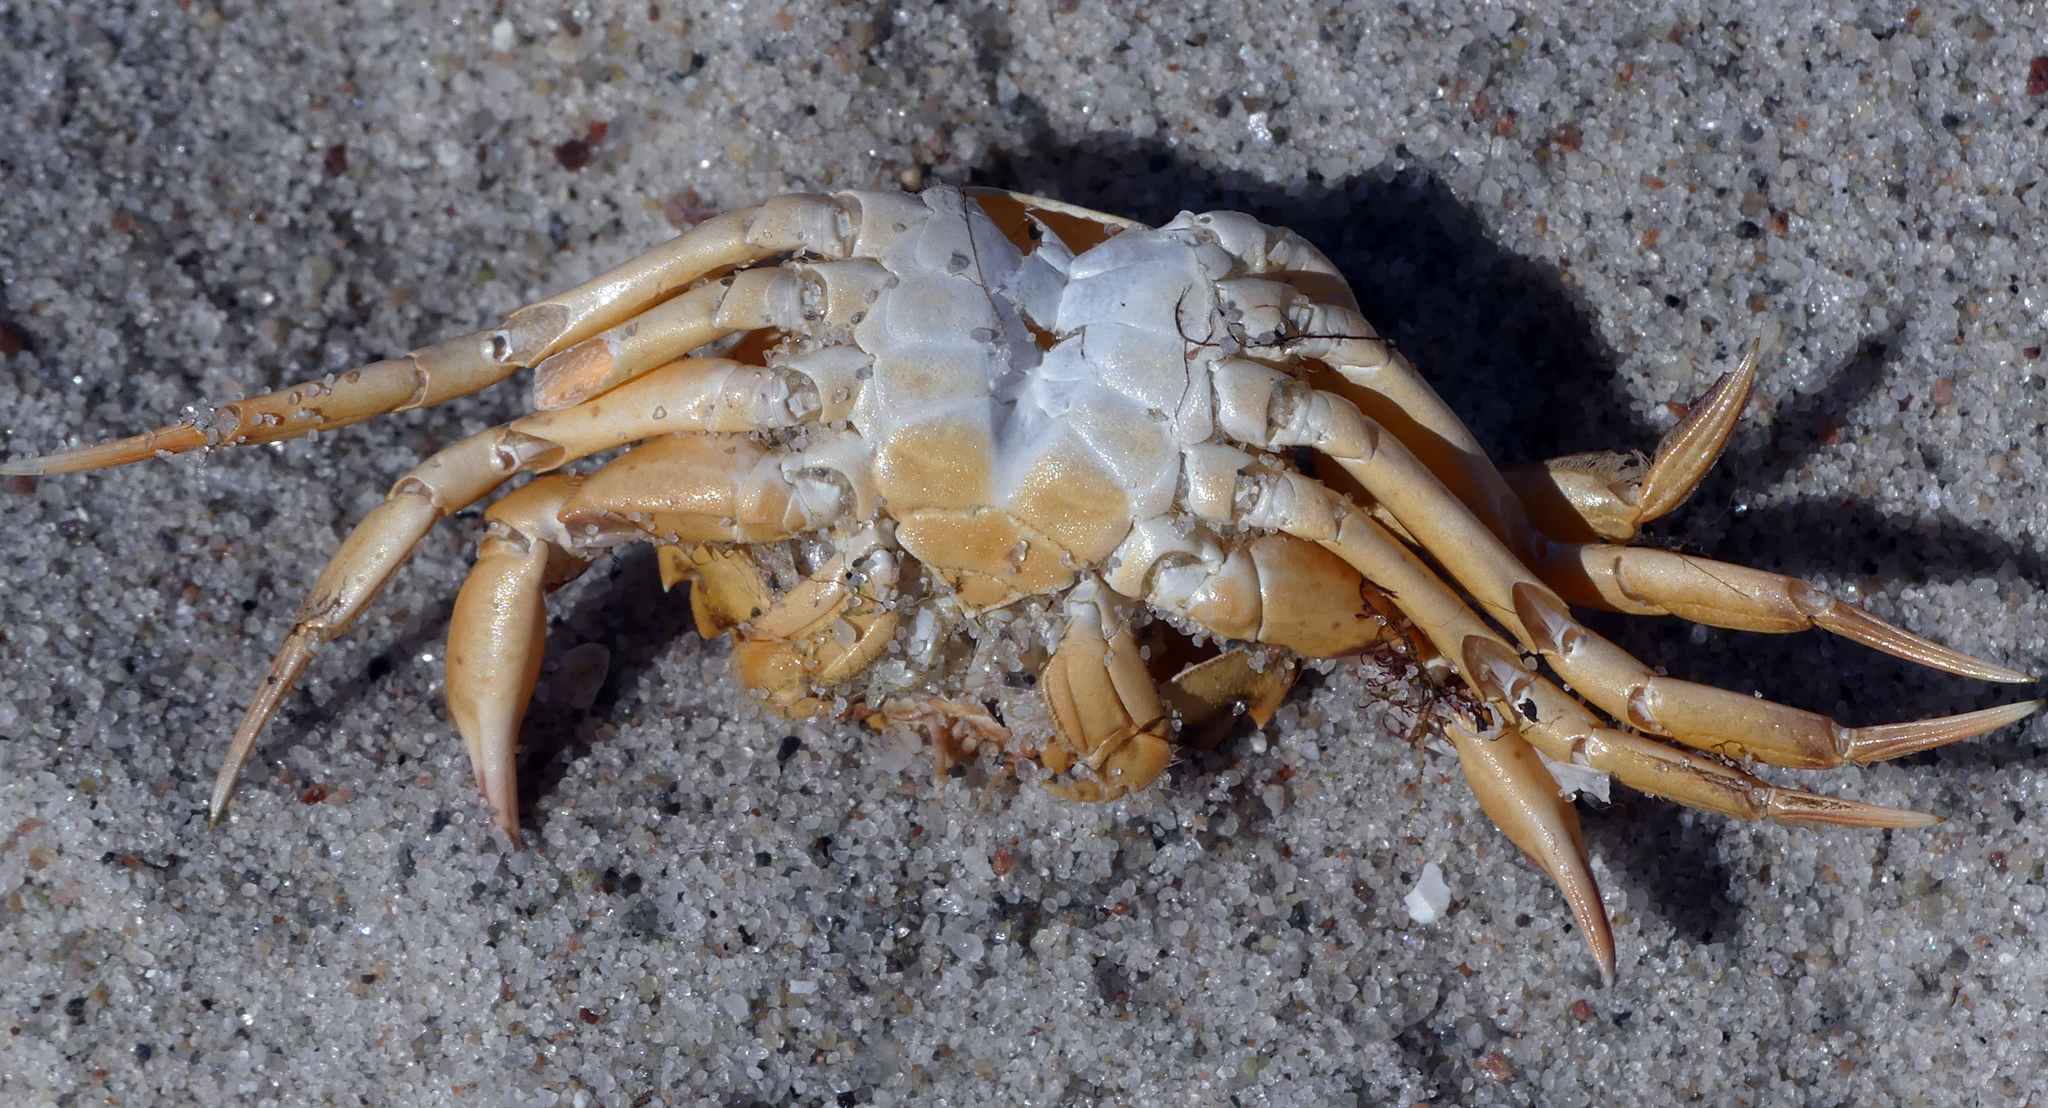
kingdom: Animalia
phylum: Arthropoda
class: Malacostraca
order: Decapoda
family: Carcinidae
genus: Carcinus
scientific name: Carcinus maenas
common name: European green crab
